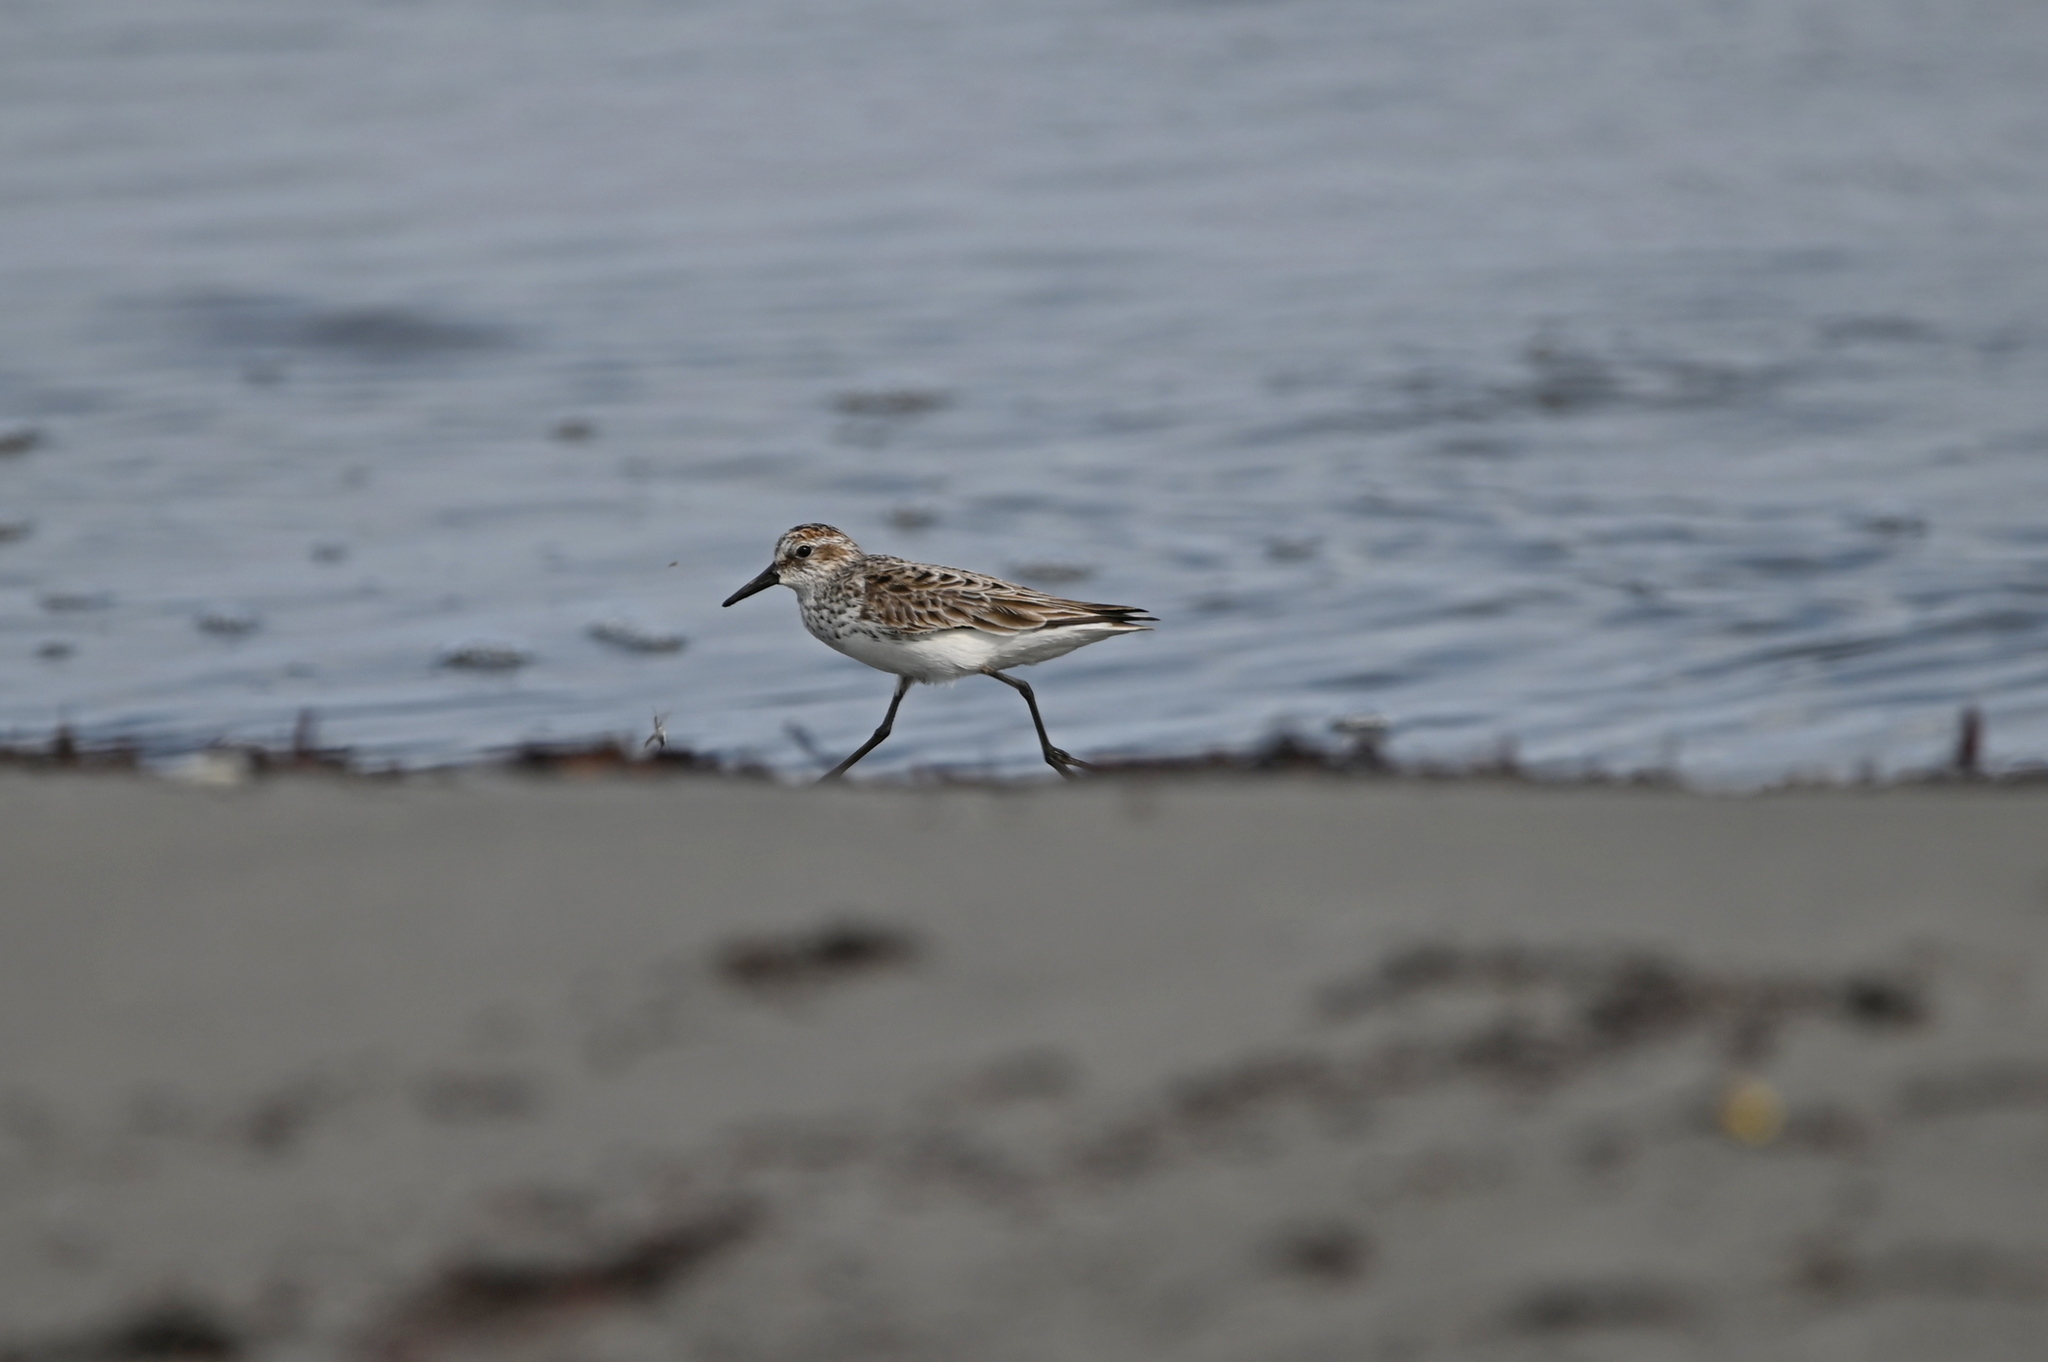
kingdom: Animalia
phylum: Chordata
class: Aves
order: Charadriiformes
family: Scolopacidae
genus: Calidris
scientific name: Calidris pusilla
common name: Semipalmated sandpiper
